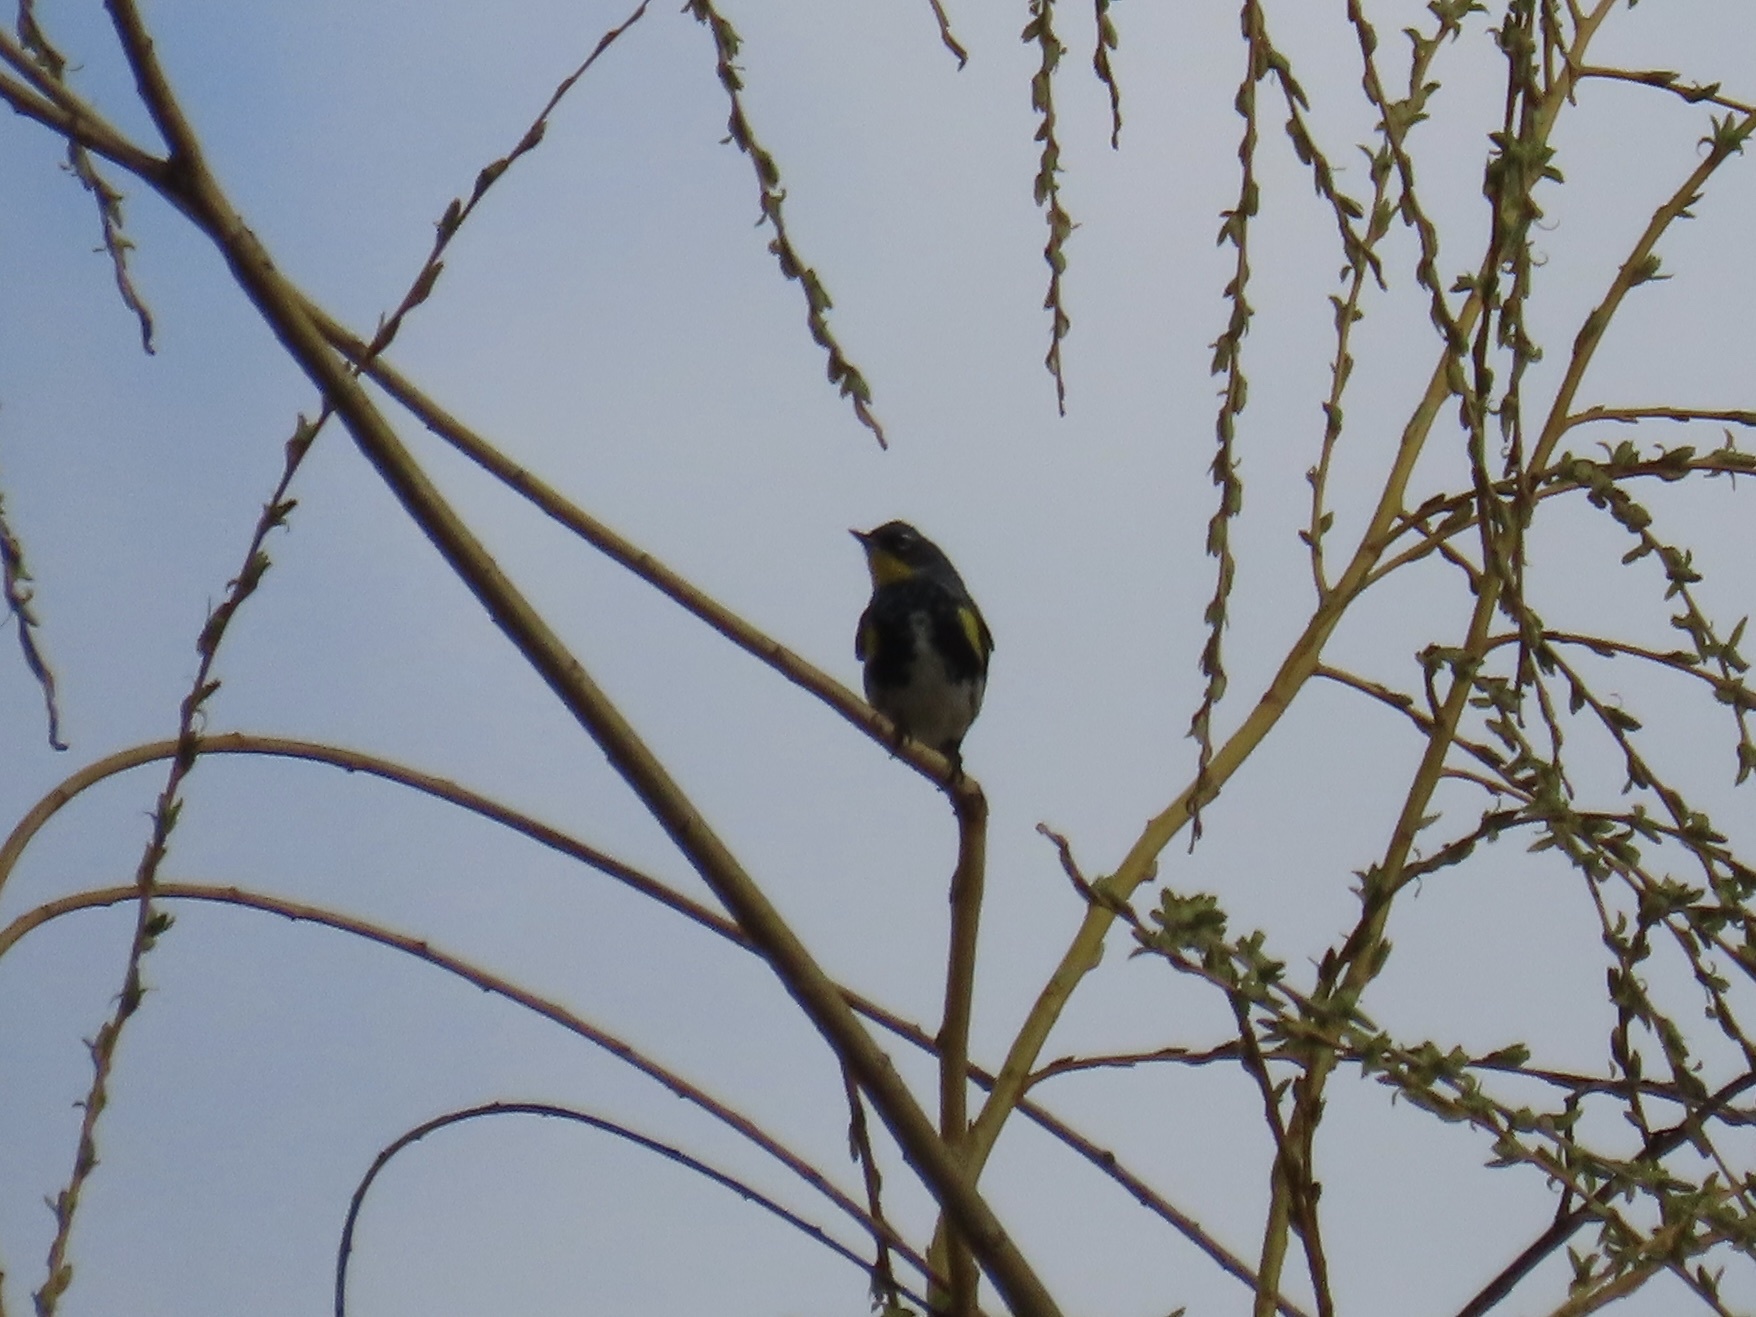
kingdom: Animalia
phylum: Chordata
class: Aves
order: Passeriformes
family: Parulidae
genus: Setophaga
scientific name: Setophaga coronata
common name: Myrtle warbler
